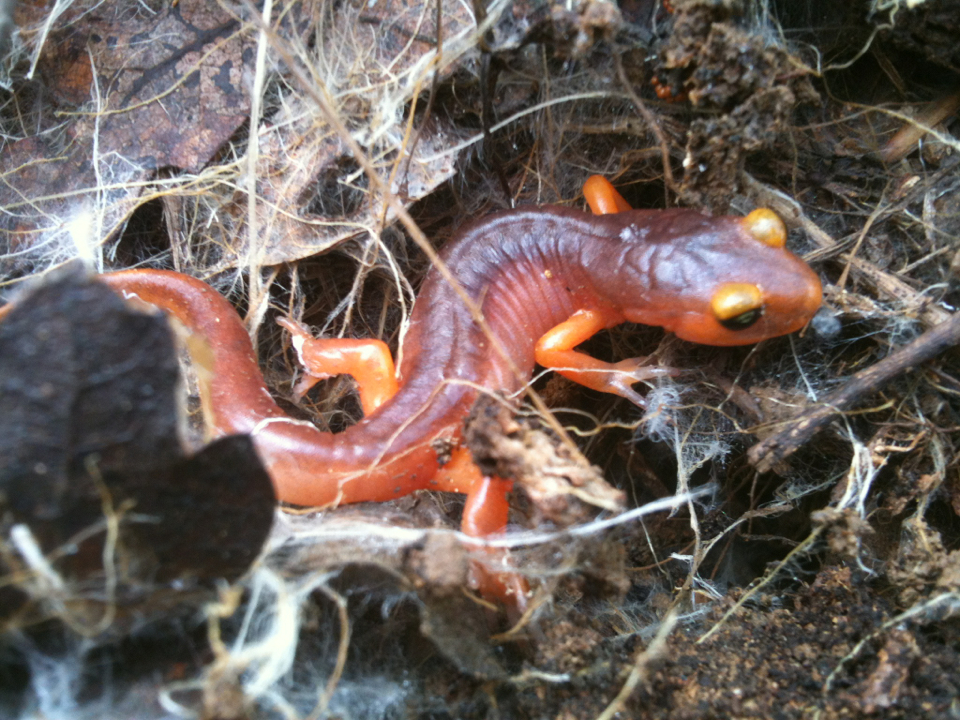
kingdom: Animalia
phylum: Chordata
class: Amphibia
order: Caudata
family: Plethodontidae
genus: Ensatina
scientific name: Ensatina eschscholtzii
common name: Ensatina
